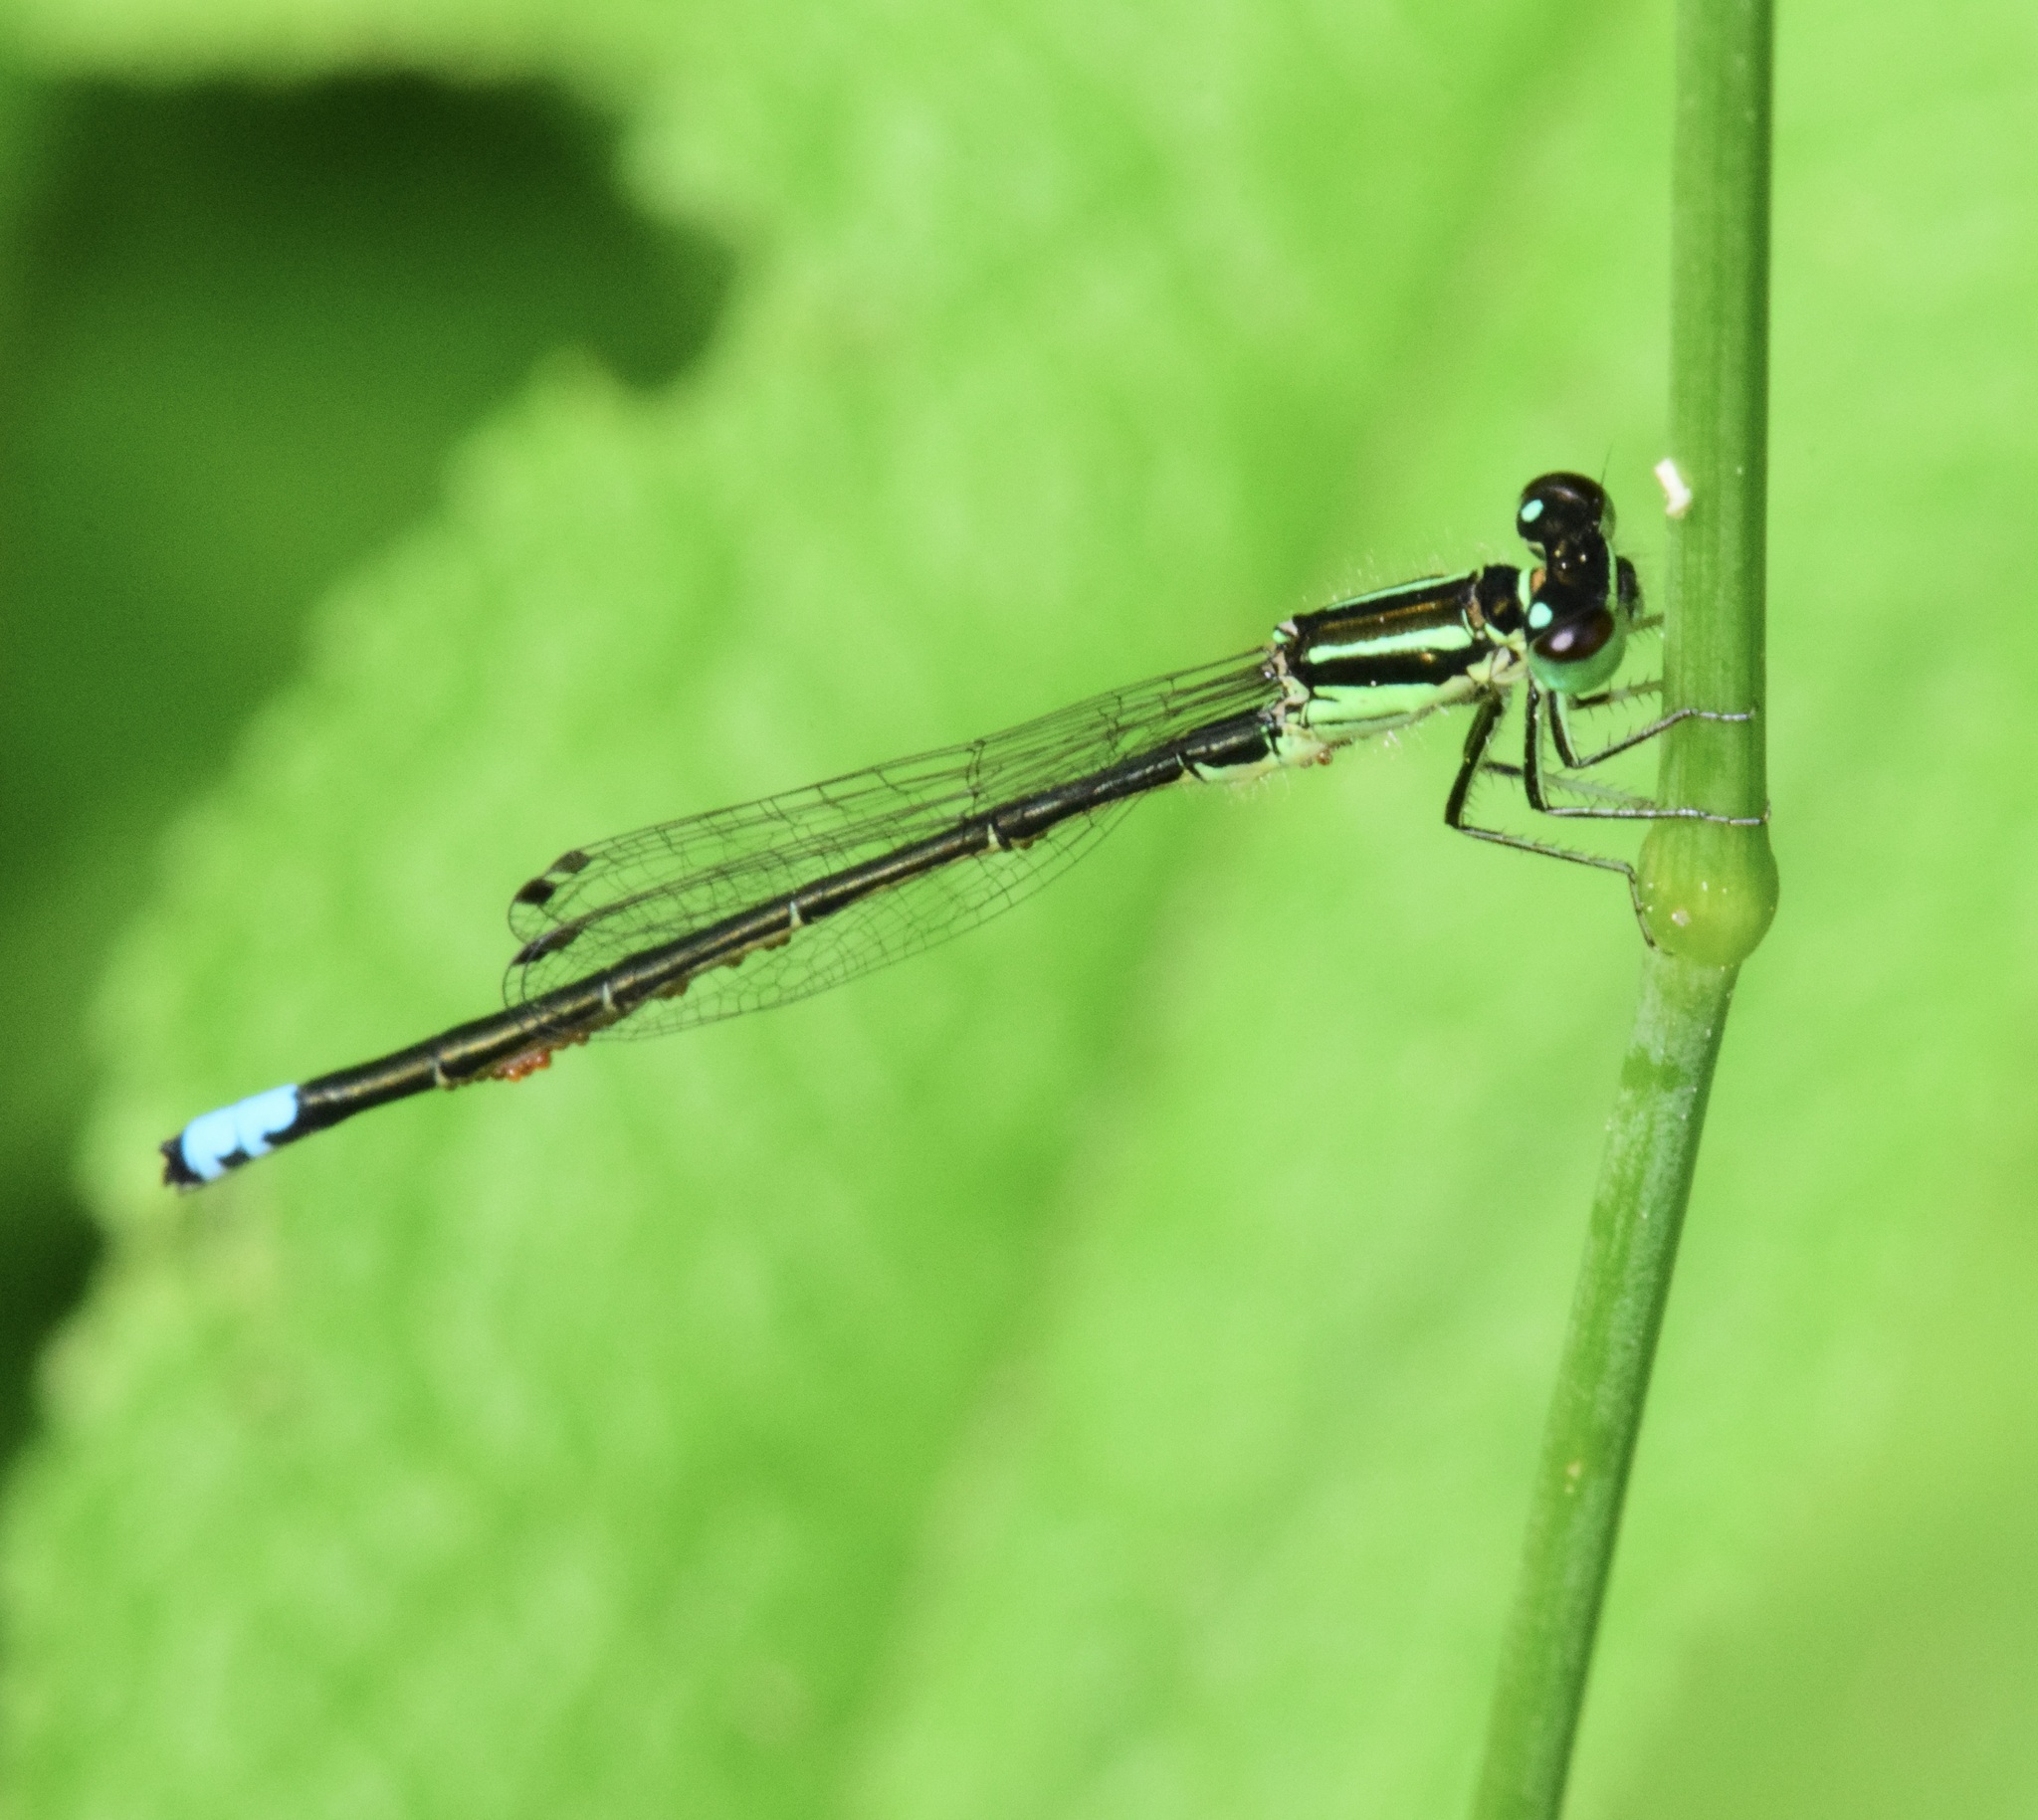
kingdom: Animalia
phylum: Arthropoda
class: Insecta
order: Odonata
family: Coenagrionidae
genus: Ischnura
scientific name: Ischnura verticalis
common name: Eastern forktail
